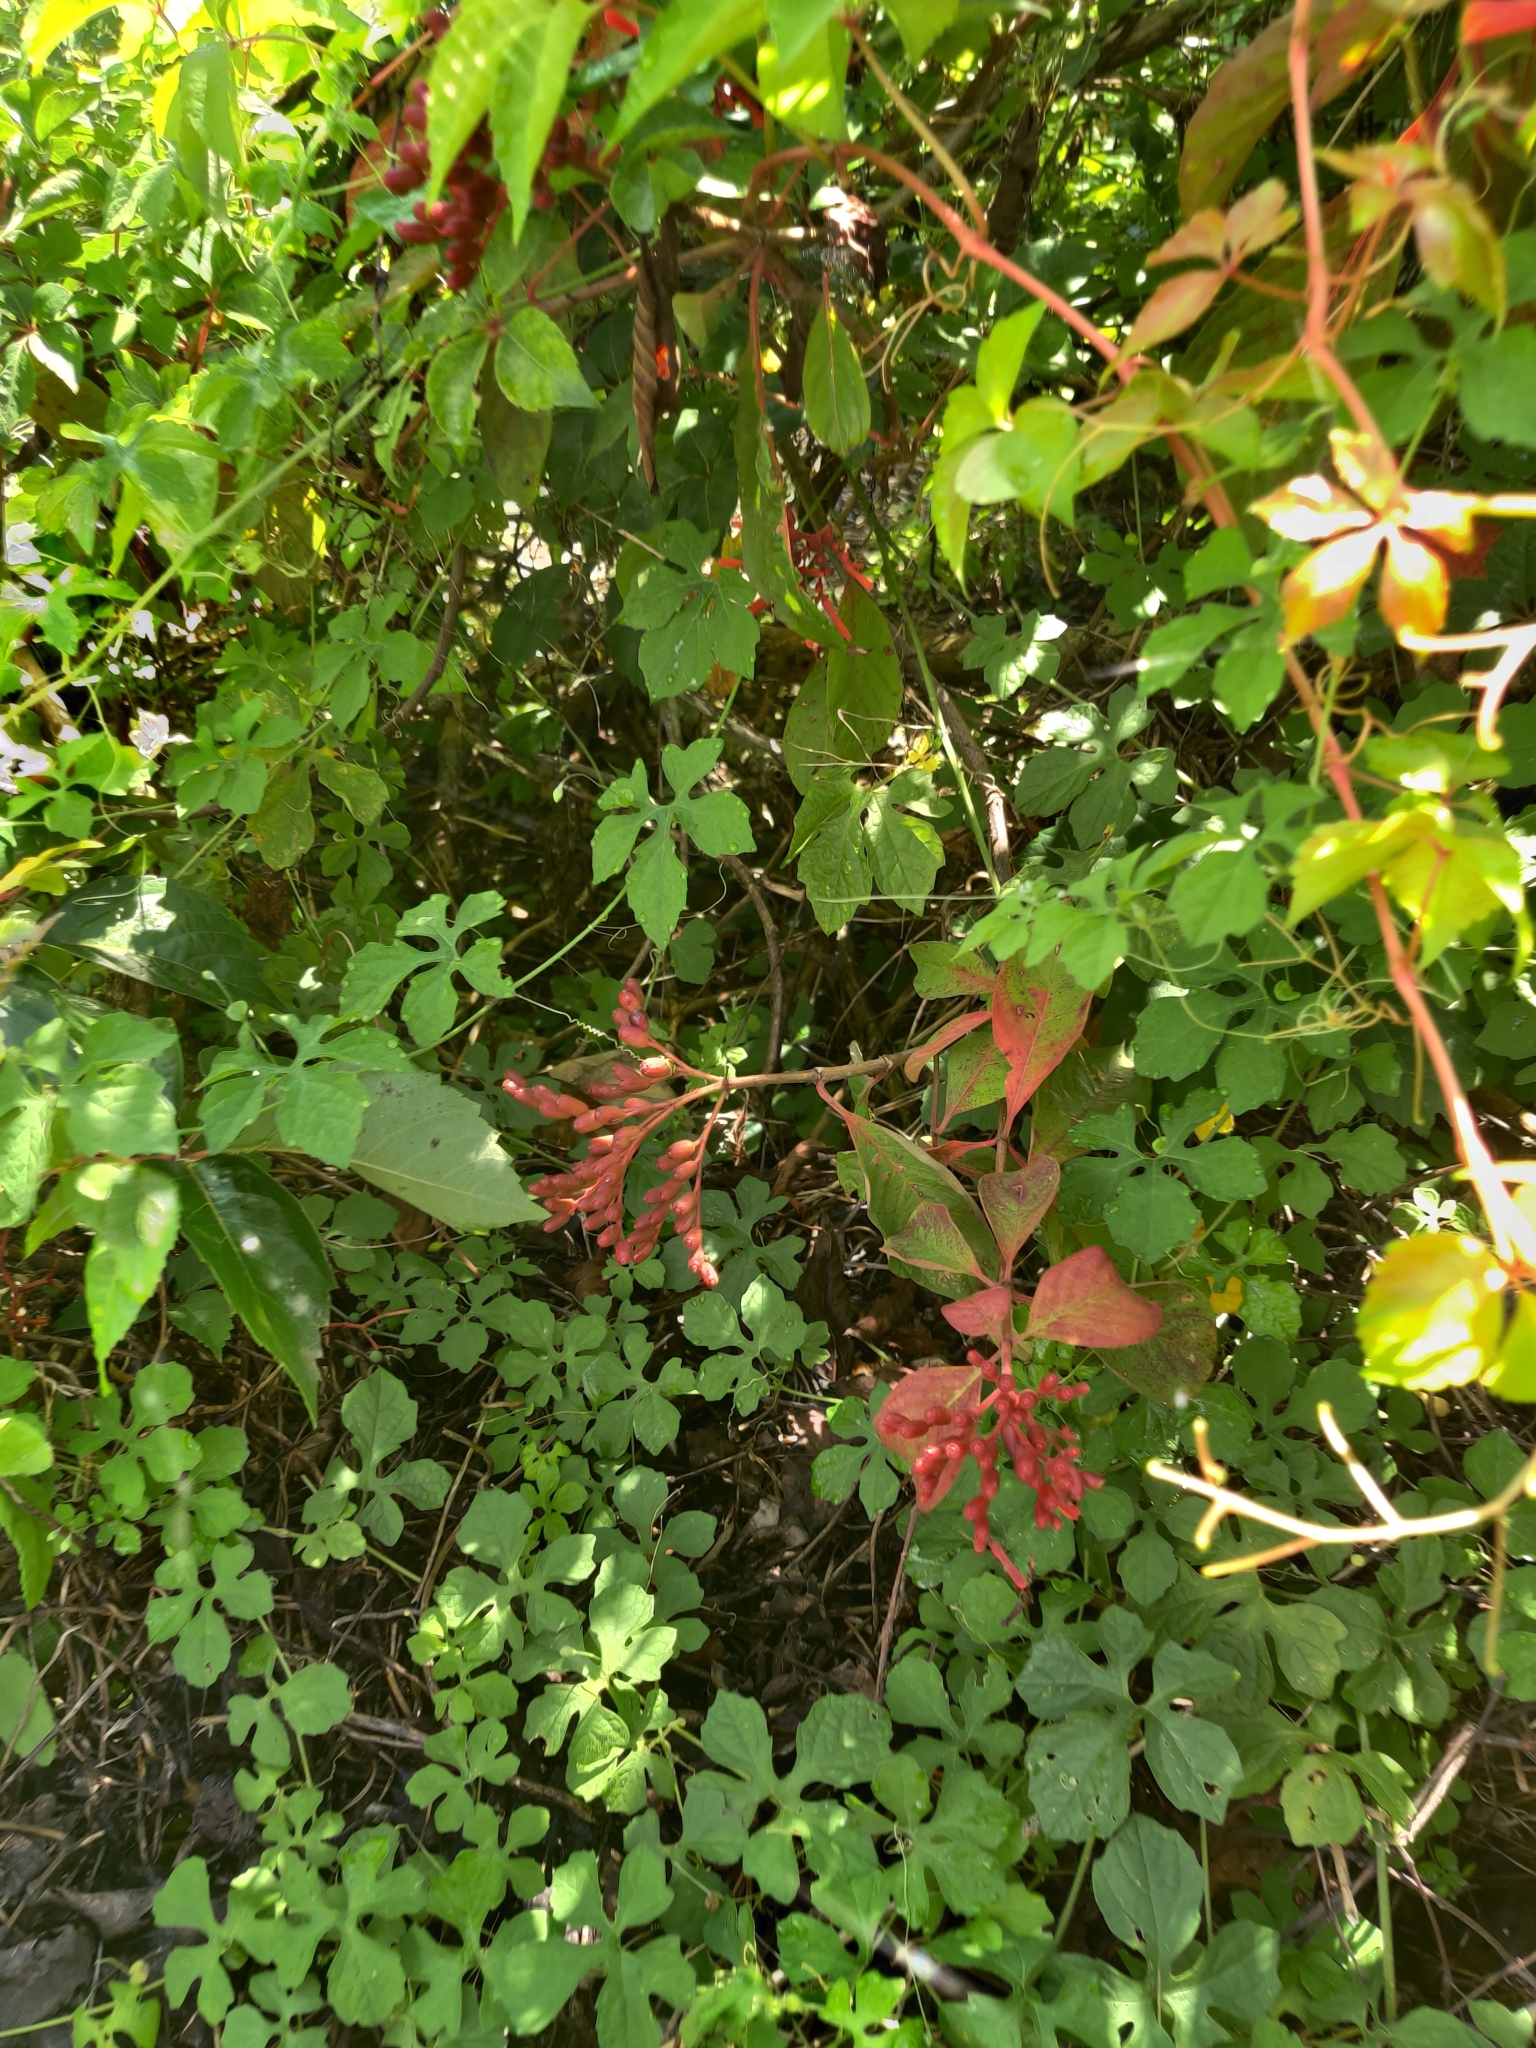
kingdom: Plantae
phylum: Tracheophyta
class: Magnoliopsida
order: Gentianales
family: Rubiaceae
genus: Hamelia
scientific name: Hamelia patens
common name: Redhead
